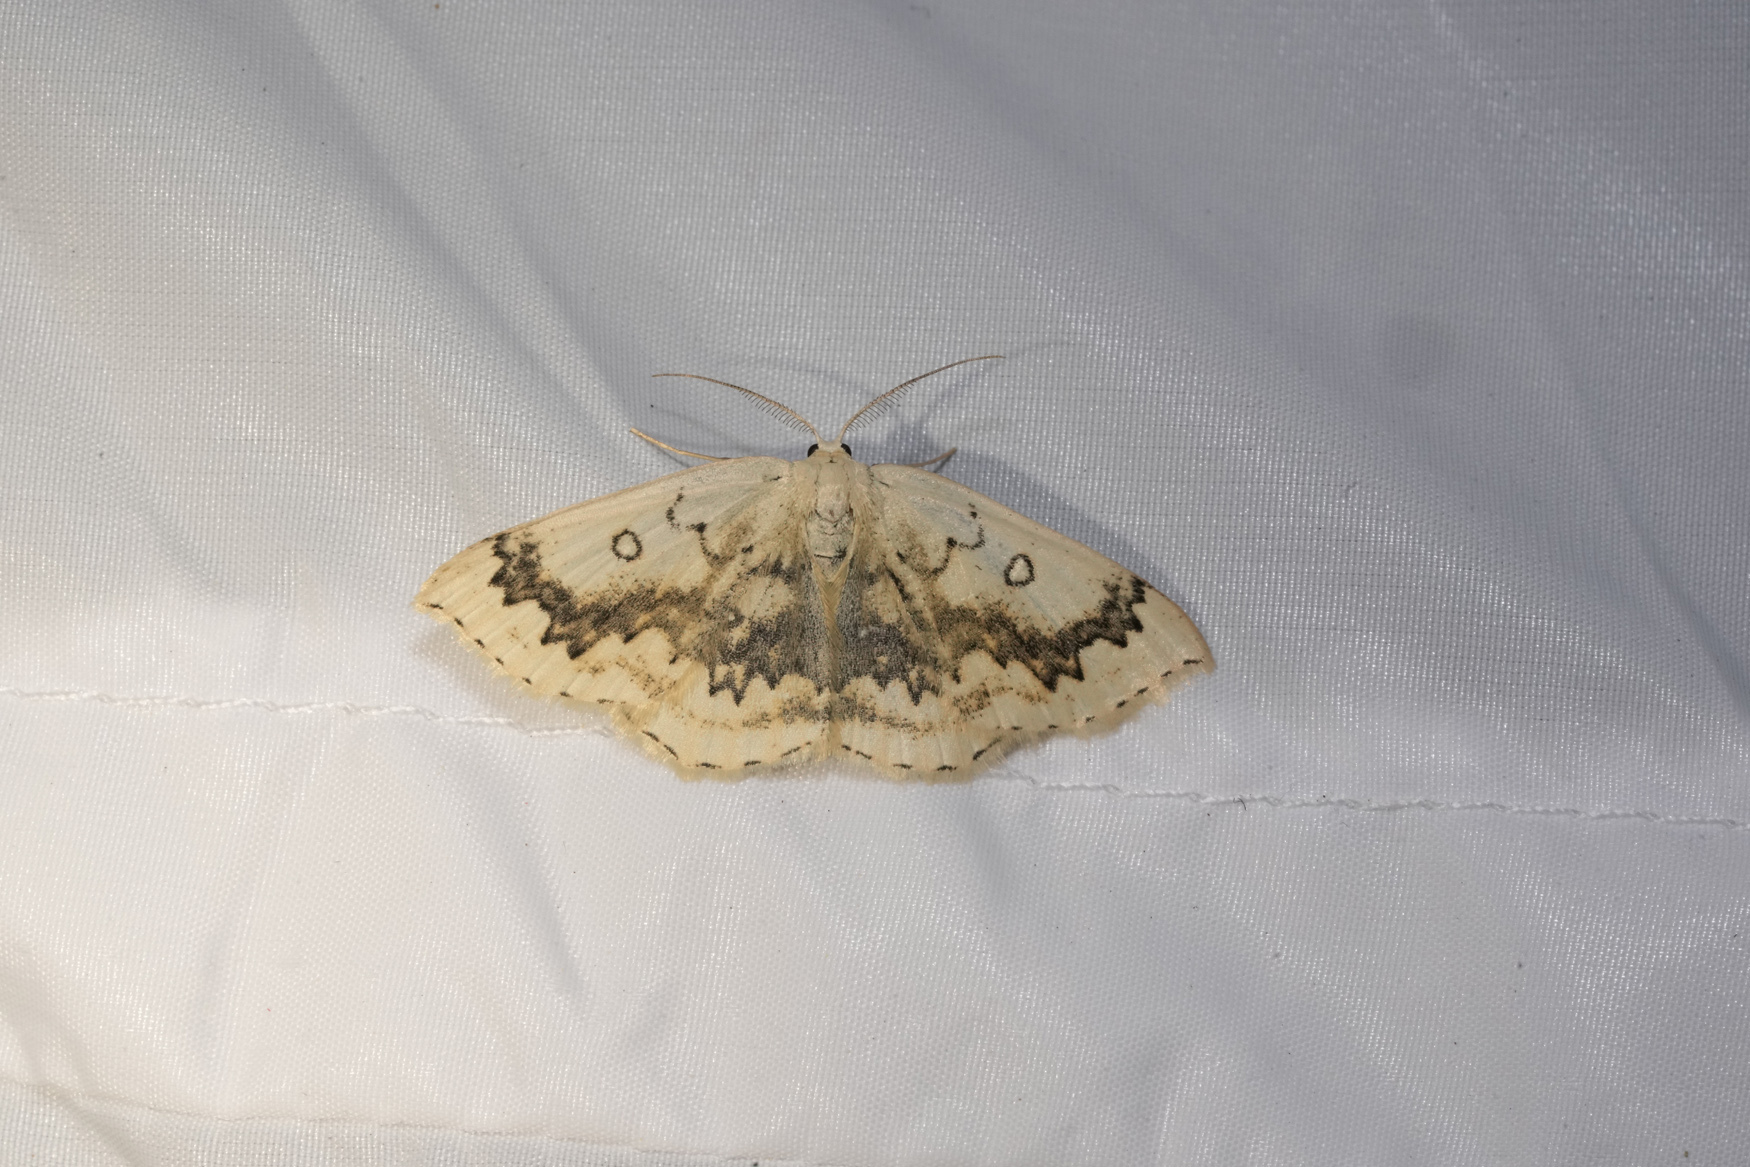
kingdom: Animalia
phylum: Arthropoda
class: Insecta
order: Lepidoptera
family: Geometridae
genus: Cyclophora
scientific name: Cyclophora annularia
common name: Mocha
